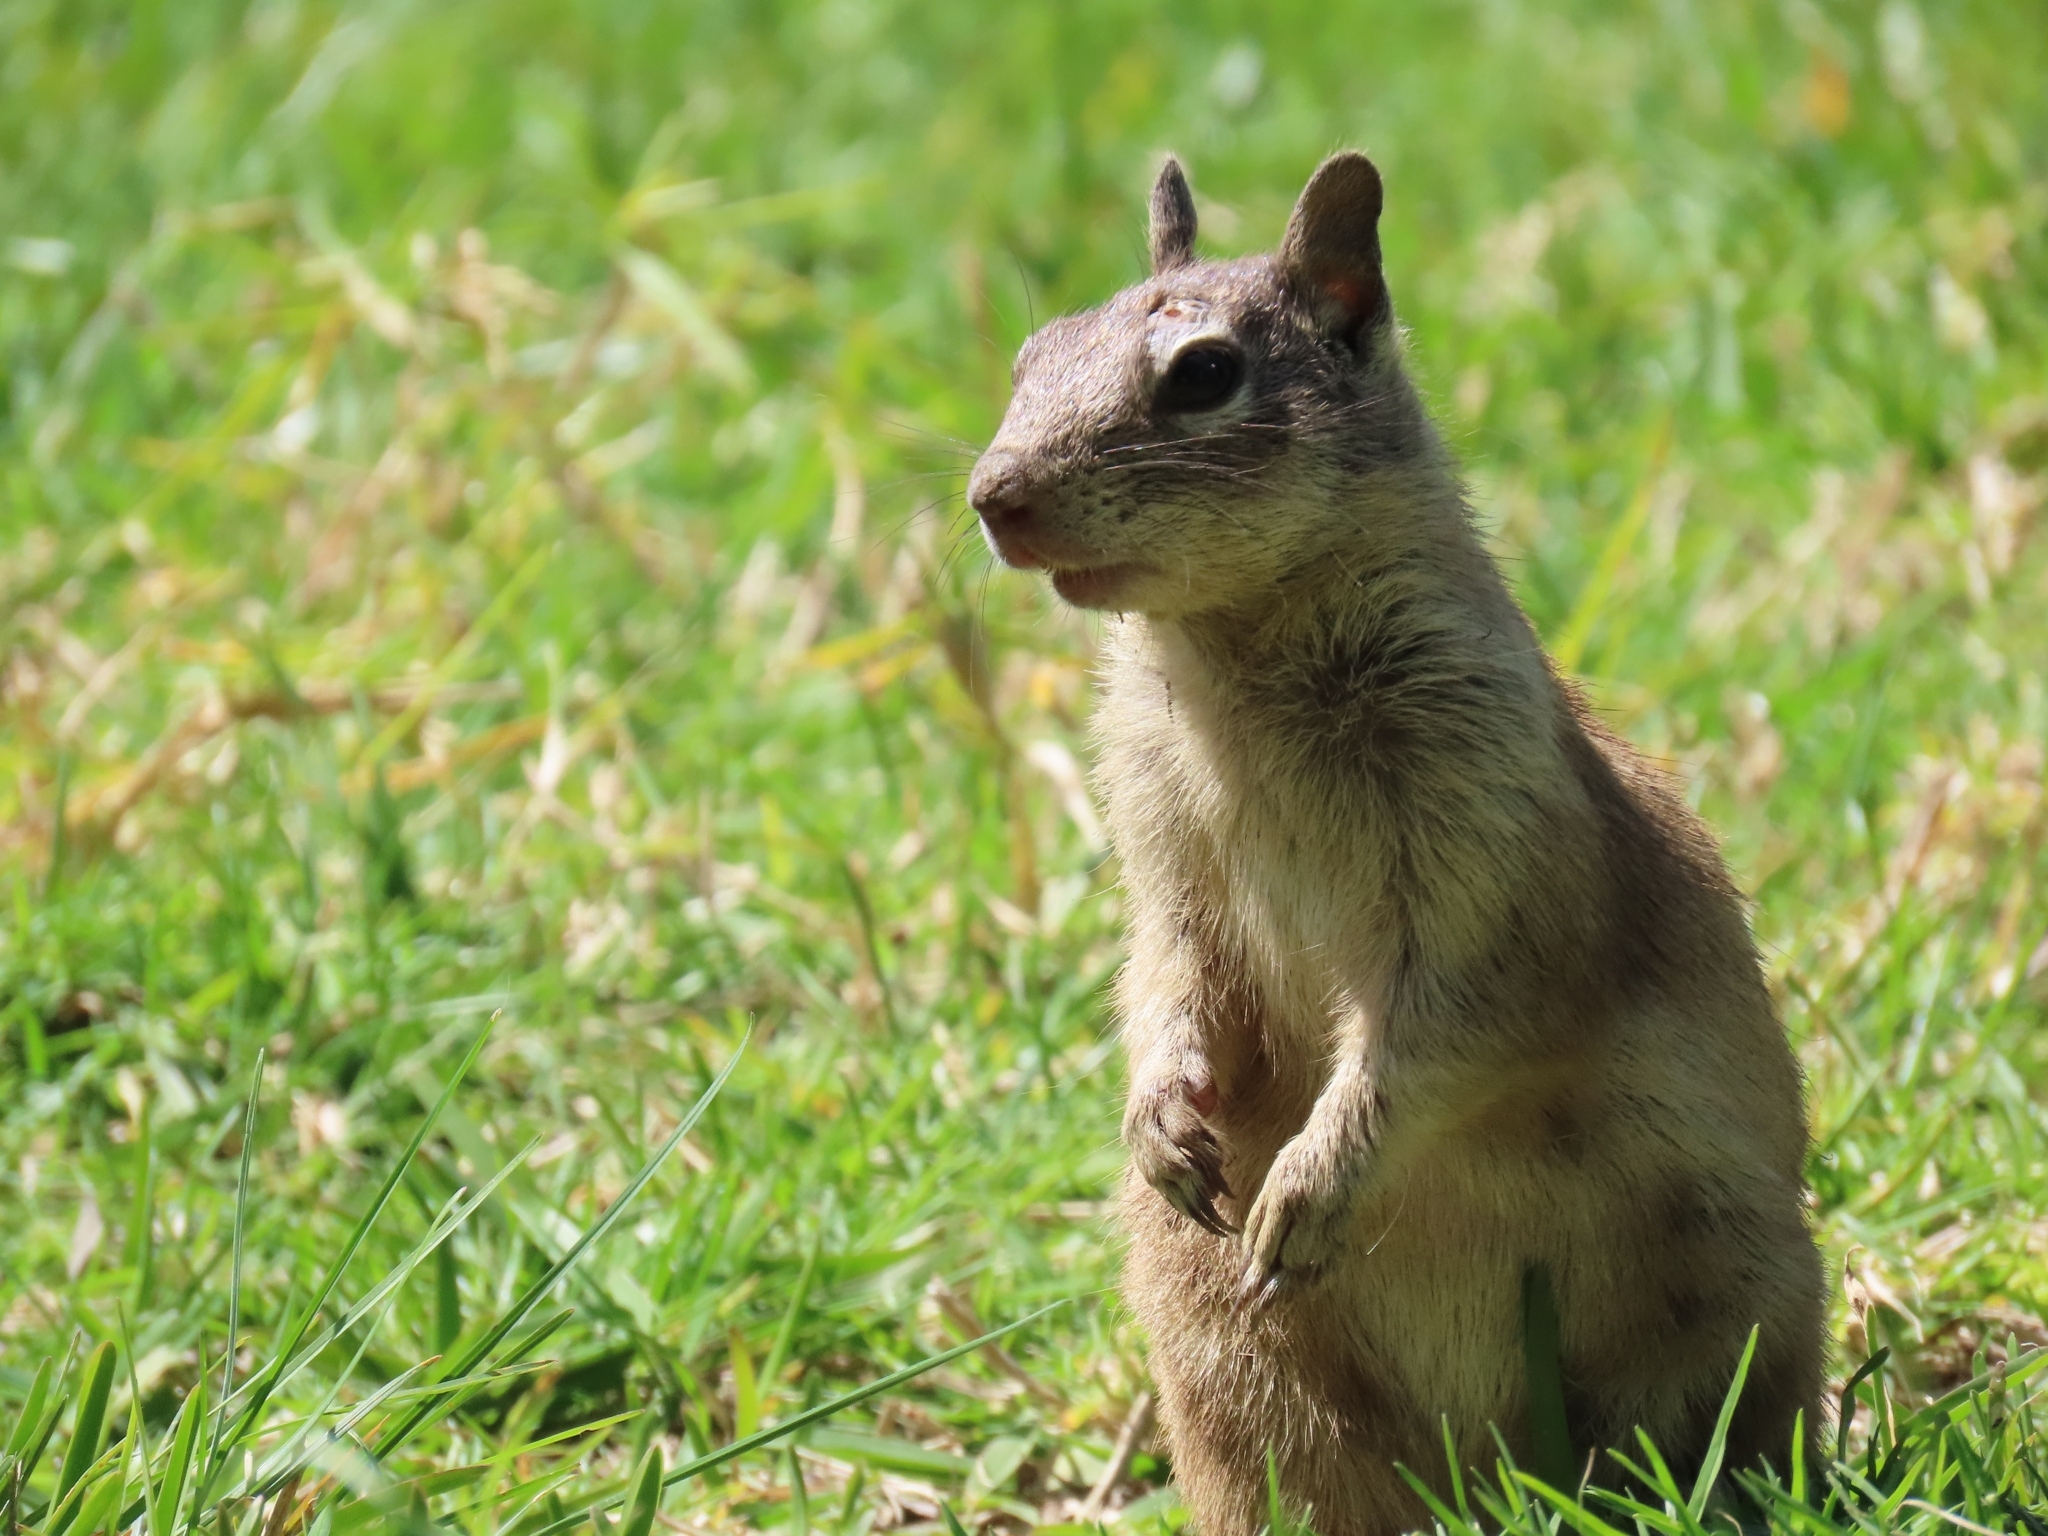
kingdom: Animalia
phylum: Chordata
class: Mammalia
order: Rodentia
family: Sciuridae
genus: Otospermophilus
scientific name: Otospermophilus beecheyi
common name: California ground squirrel
